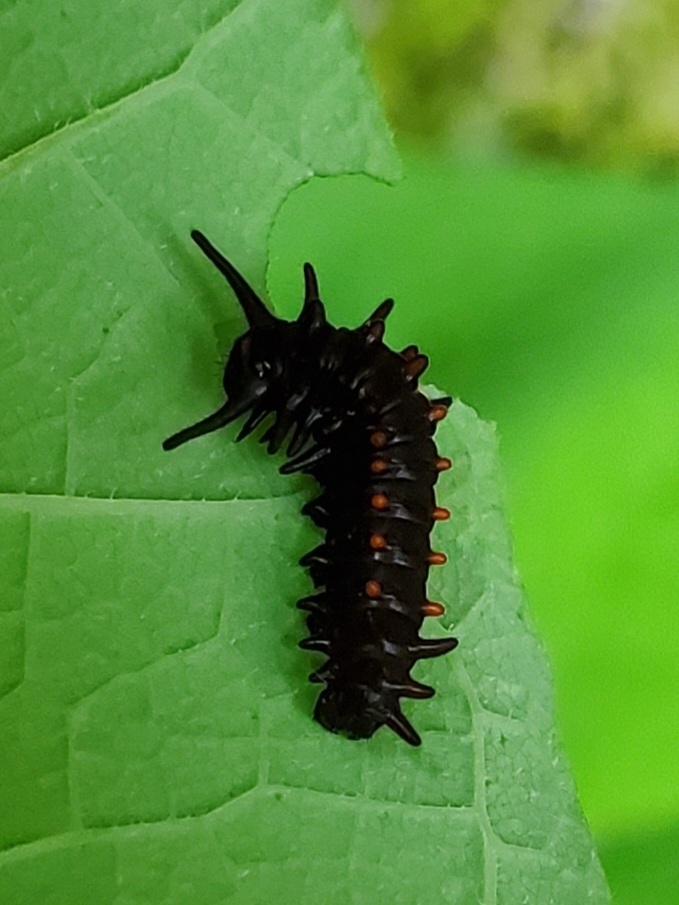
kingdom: Animalia
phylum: Arthropoda
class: Insecta
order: Lepidoptera
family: Papilionidae
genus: Battus
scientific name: Battus philenor
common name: Pipevine swallowtail
